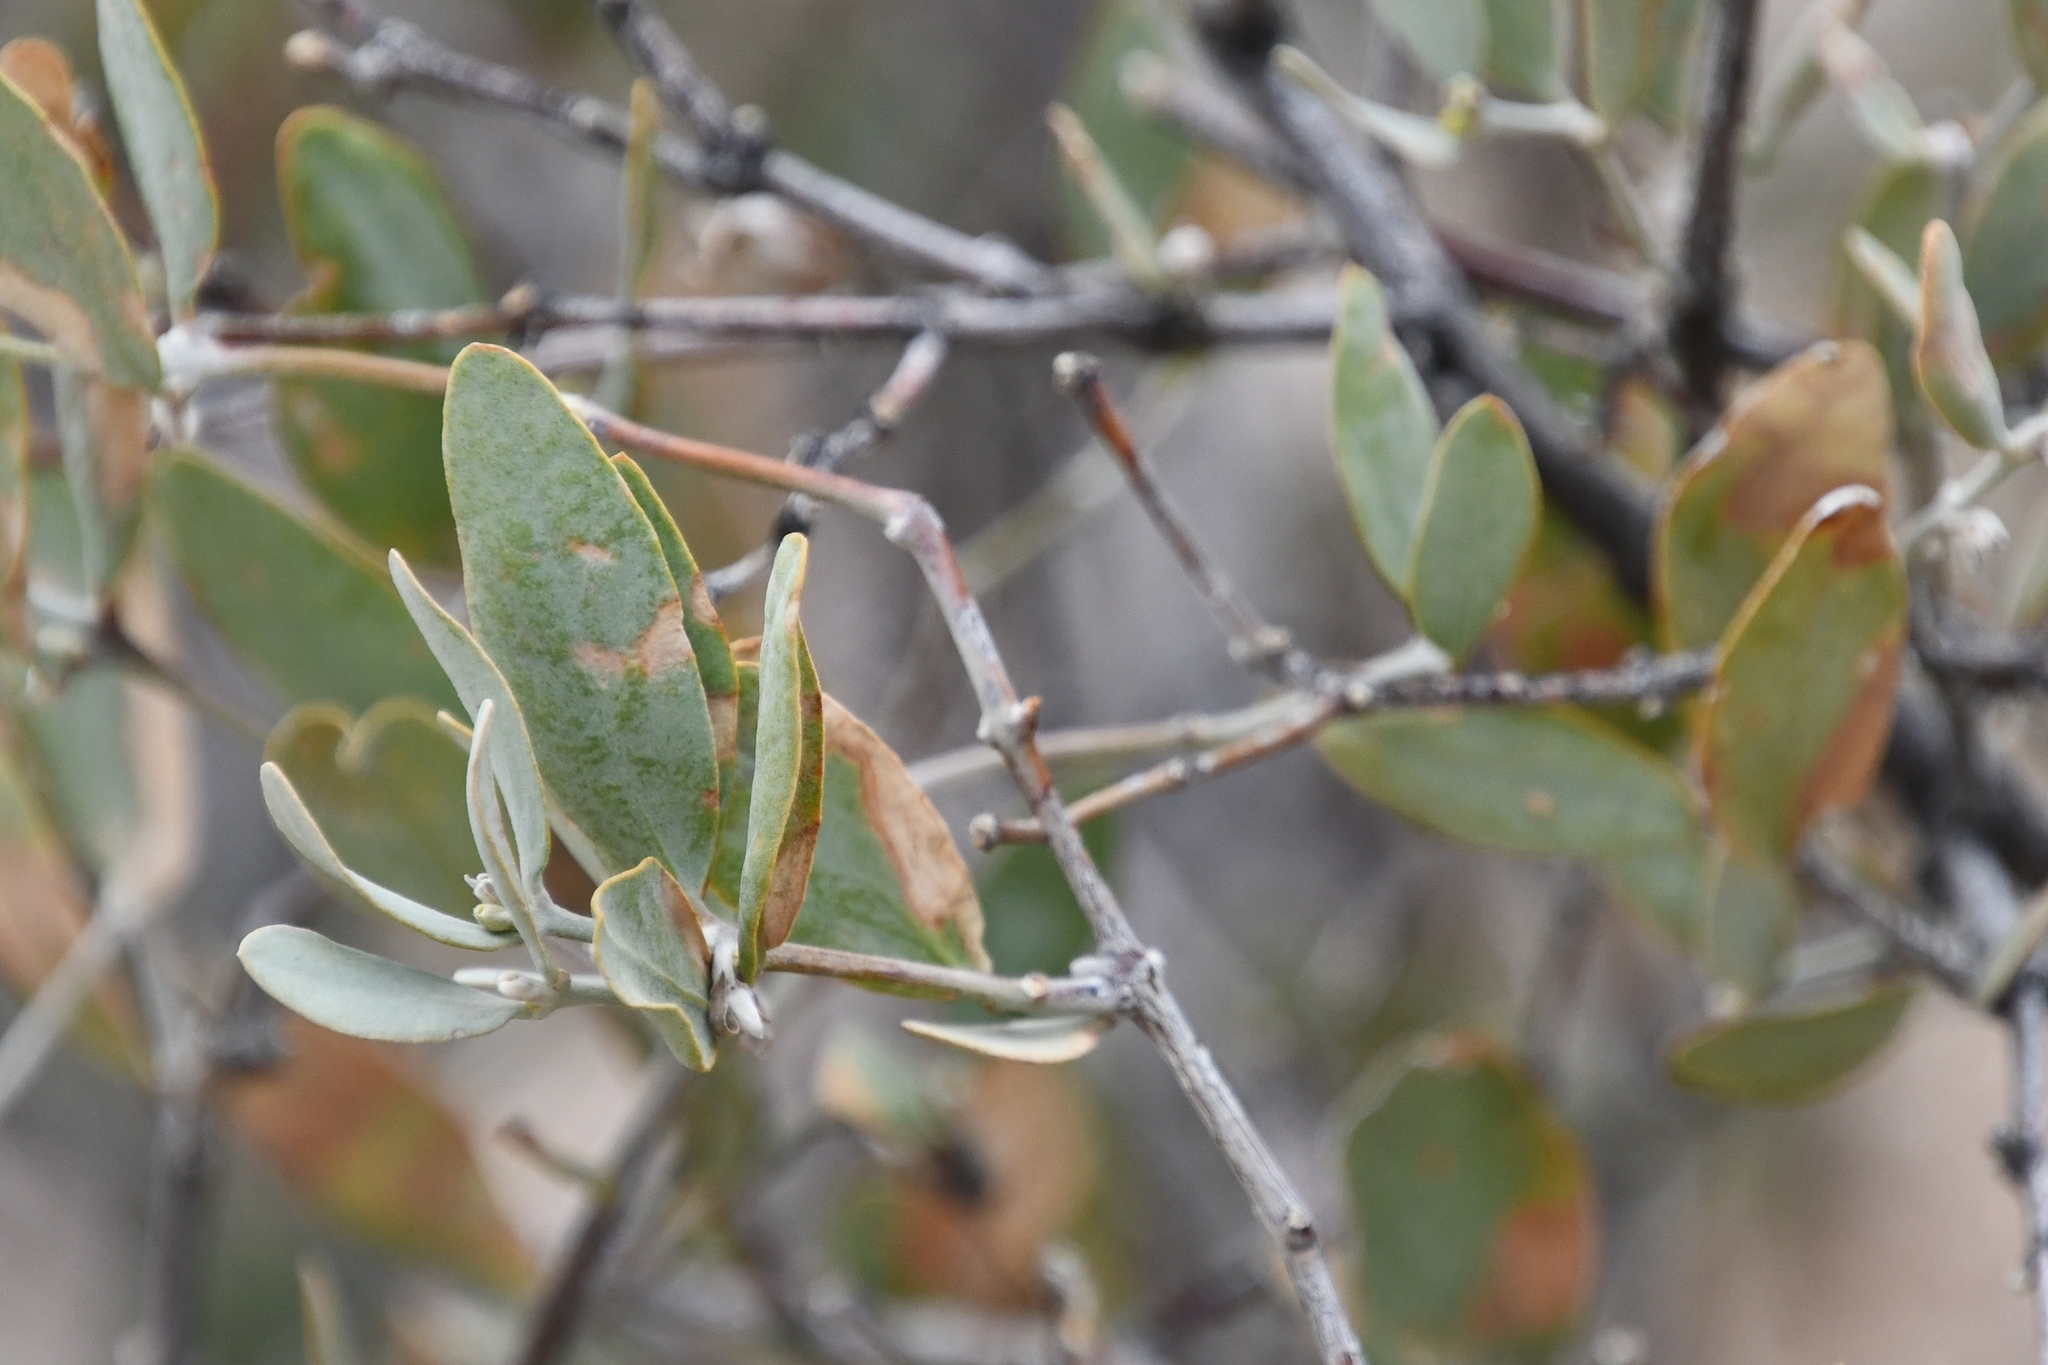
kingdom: Plantae
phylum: Tracheophyta
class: Magnoliopsida
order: Caryophyllales
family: Simmondsiaceae
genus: Simmondsia
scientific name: Simmondsia chinensis
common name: Jojoba
